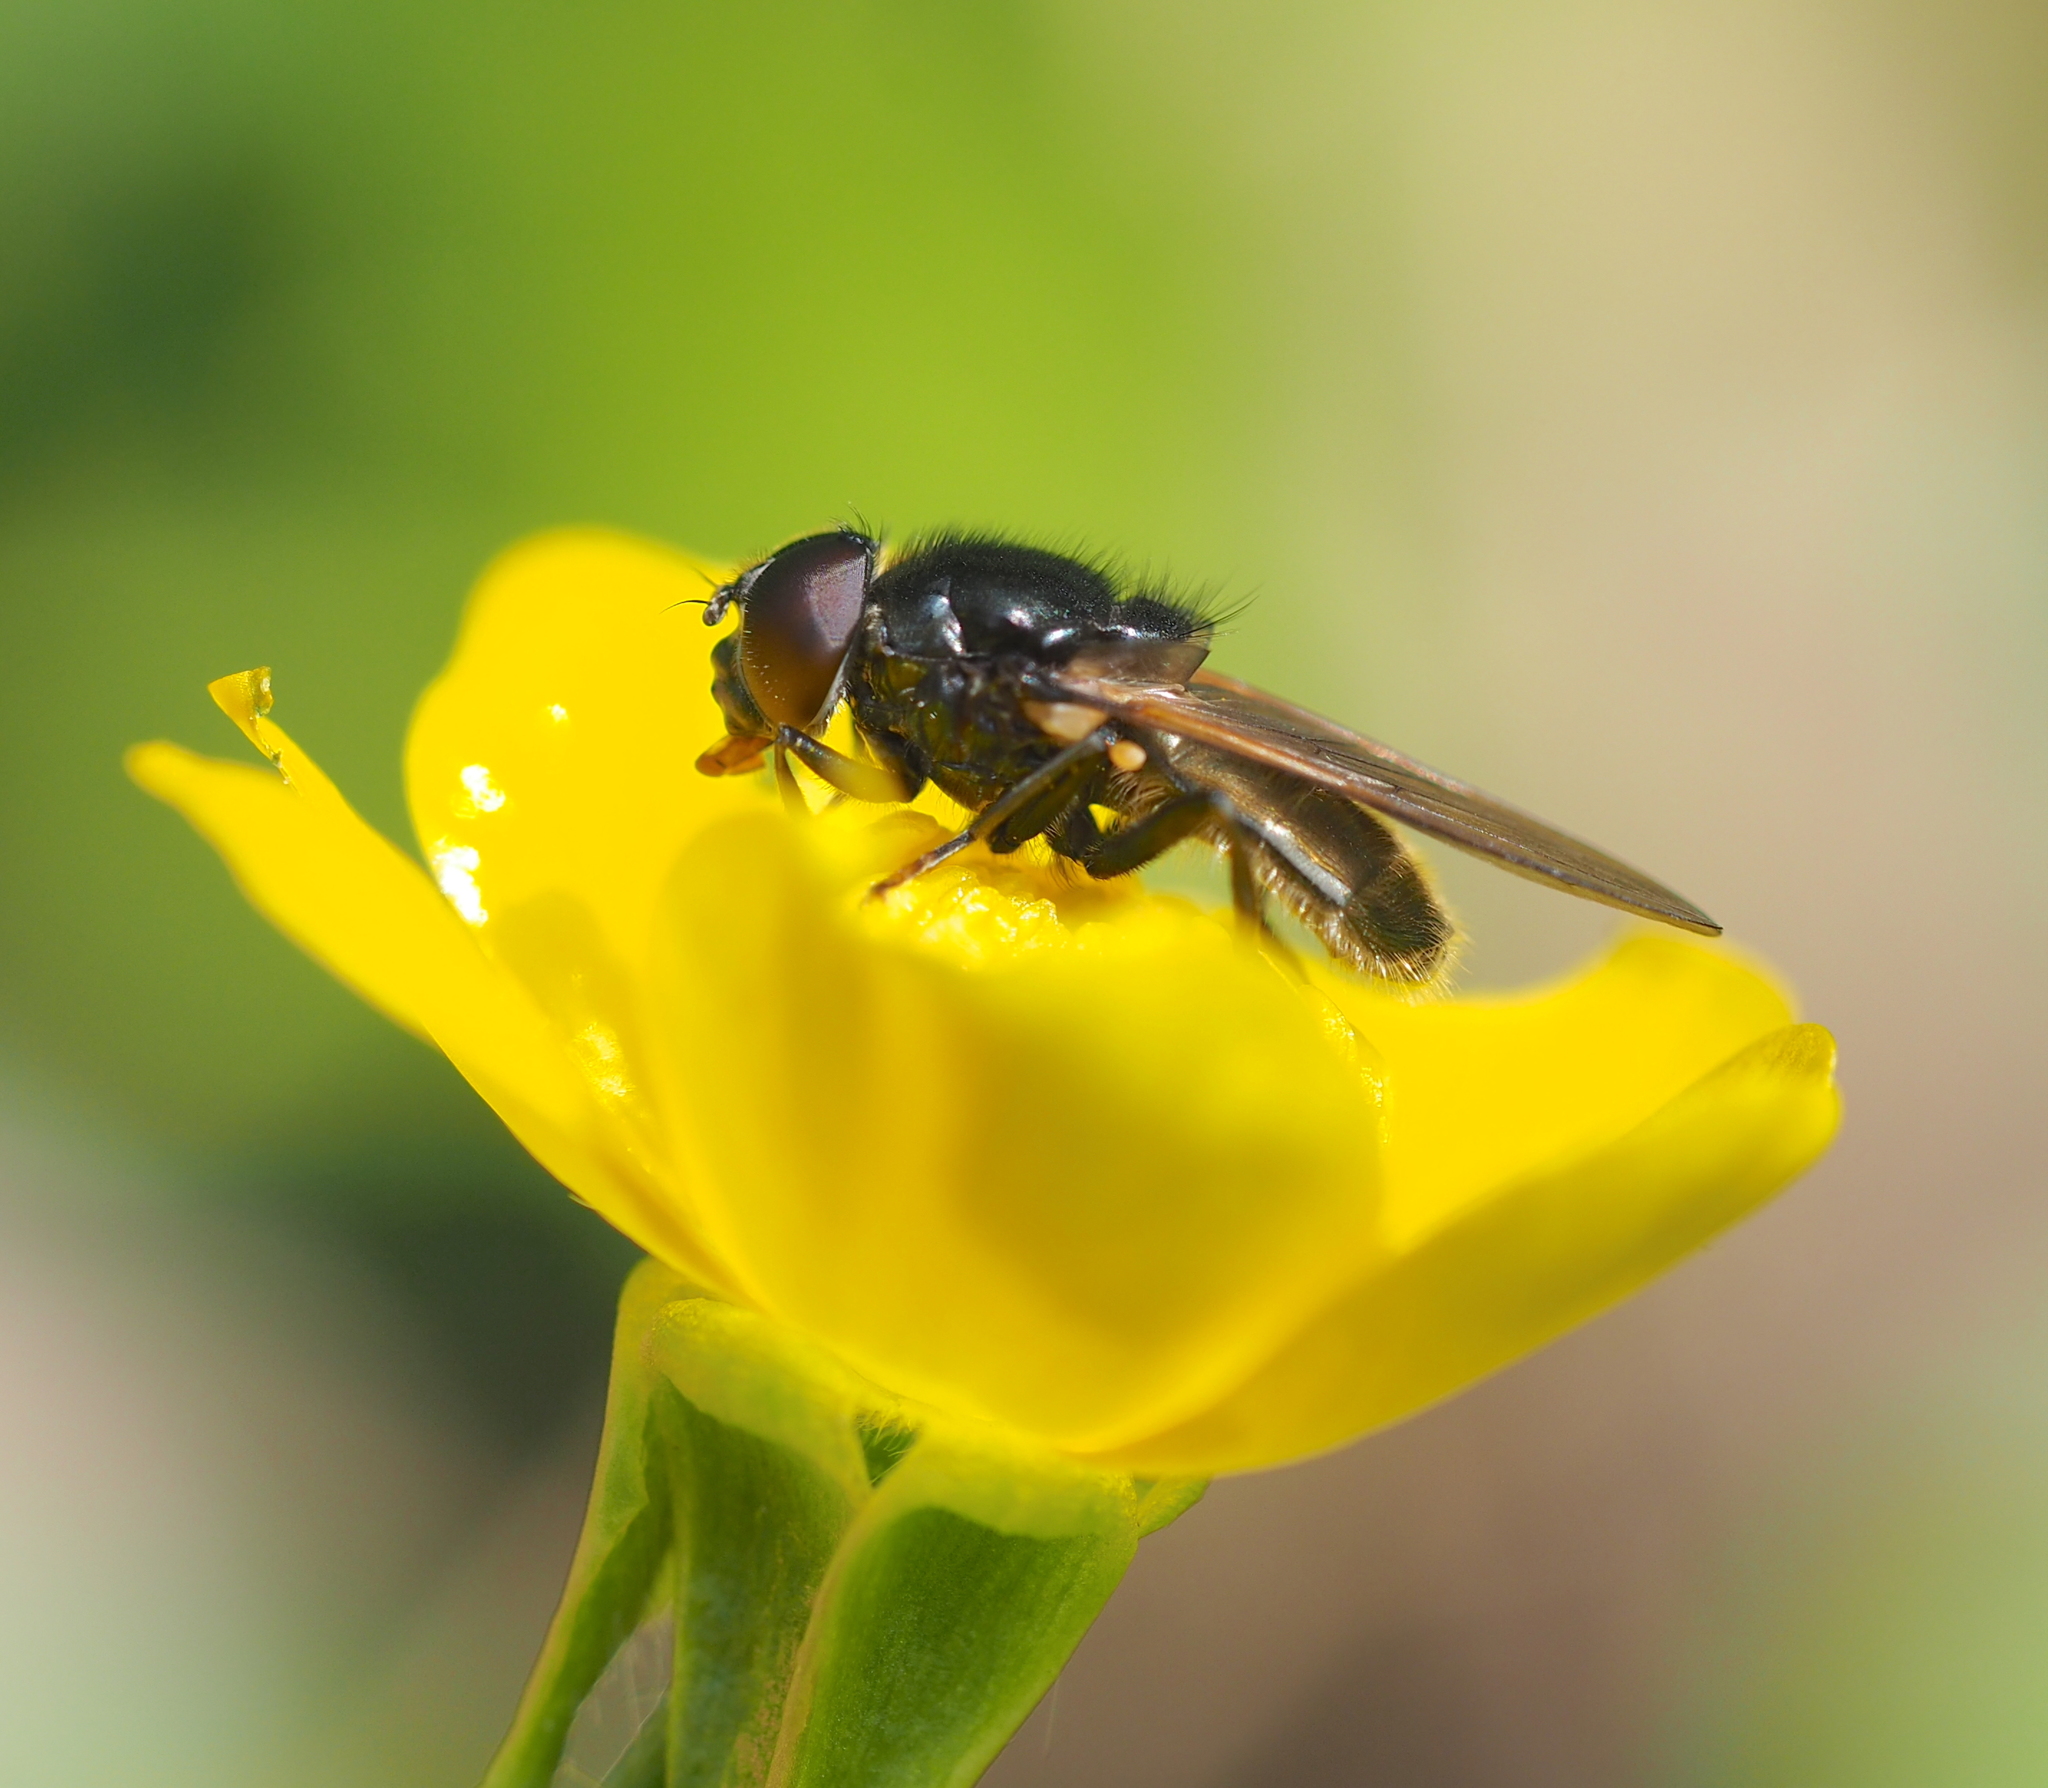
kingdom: Animalia
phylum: Arthropoda
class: Insecta
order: Diptera
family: Syrphidae
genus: Cheilosia
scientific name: Cheilosia albitarsis
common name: Buttercup blacklet
